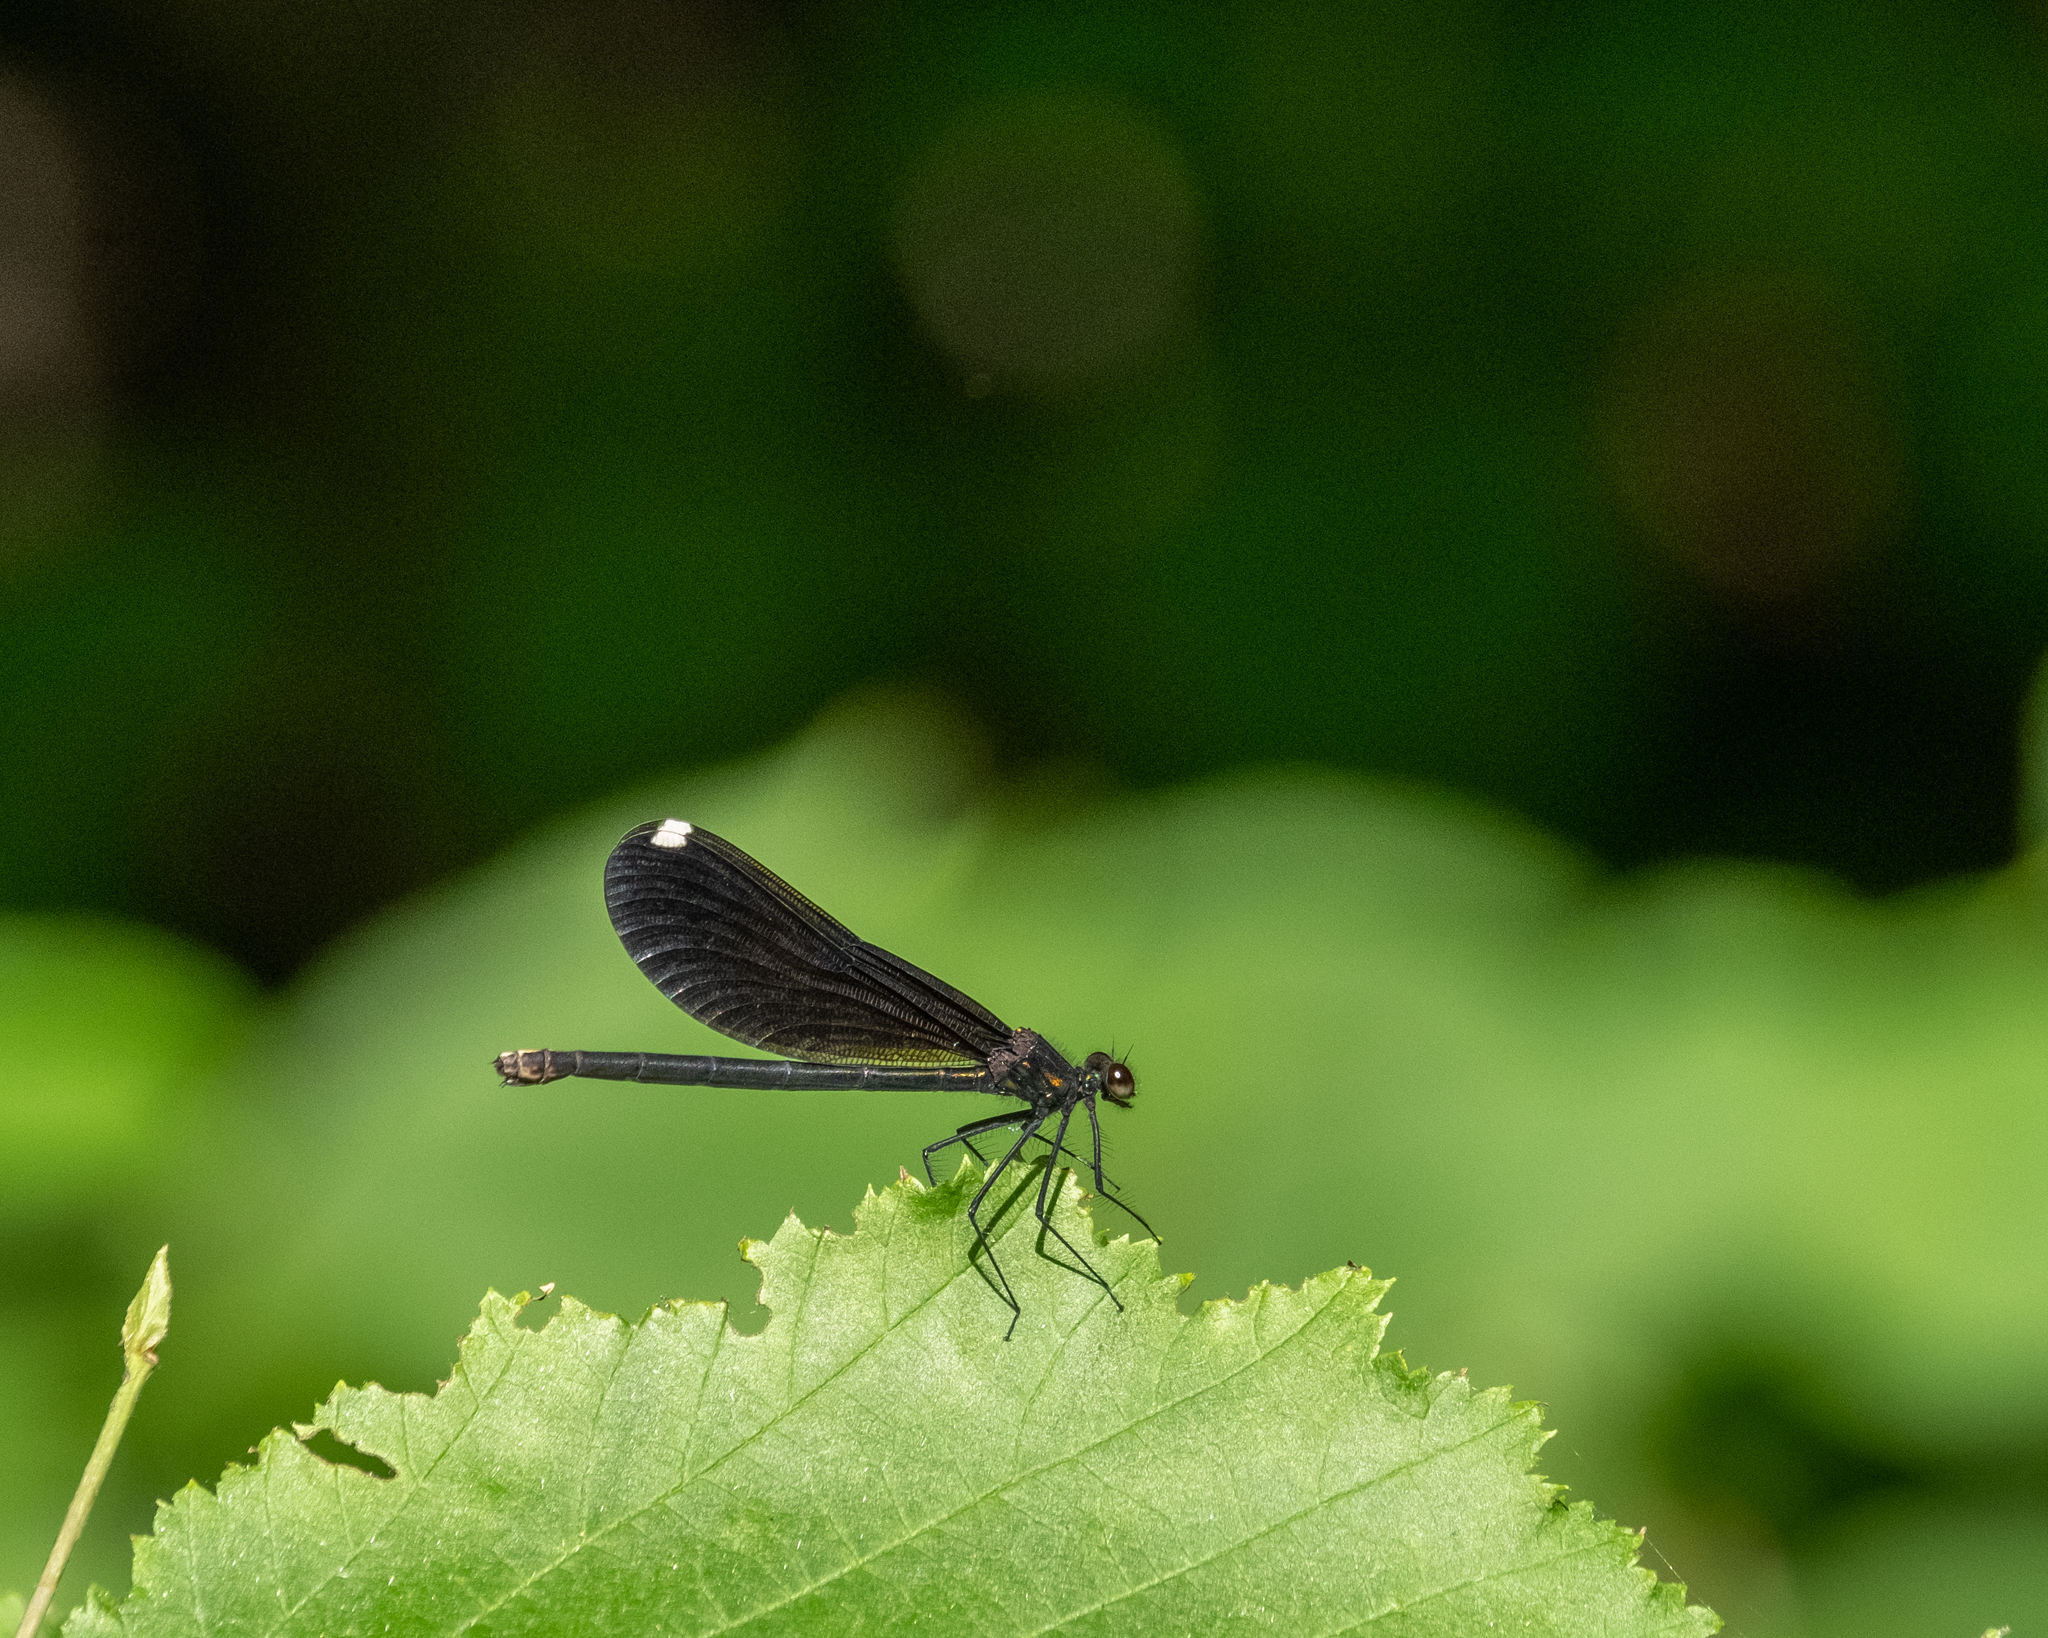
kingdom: Animalia
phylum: Arthropoda
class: Insecta
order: Odonata
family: Calopterygidae
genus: Calopteryx
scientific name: Calopteryx maculata
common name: Ebony jewelwing
